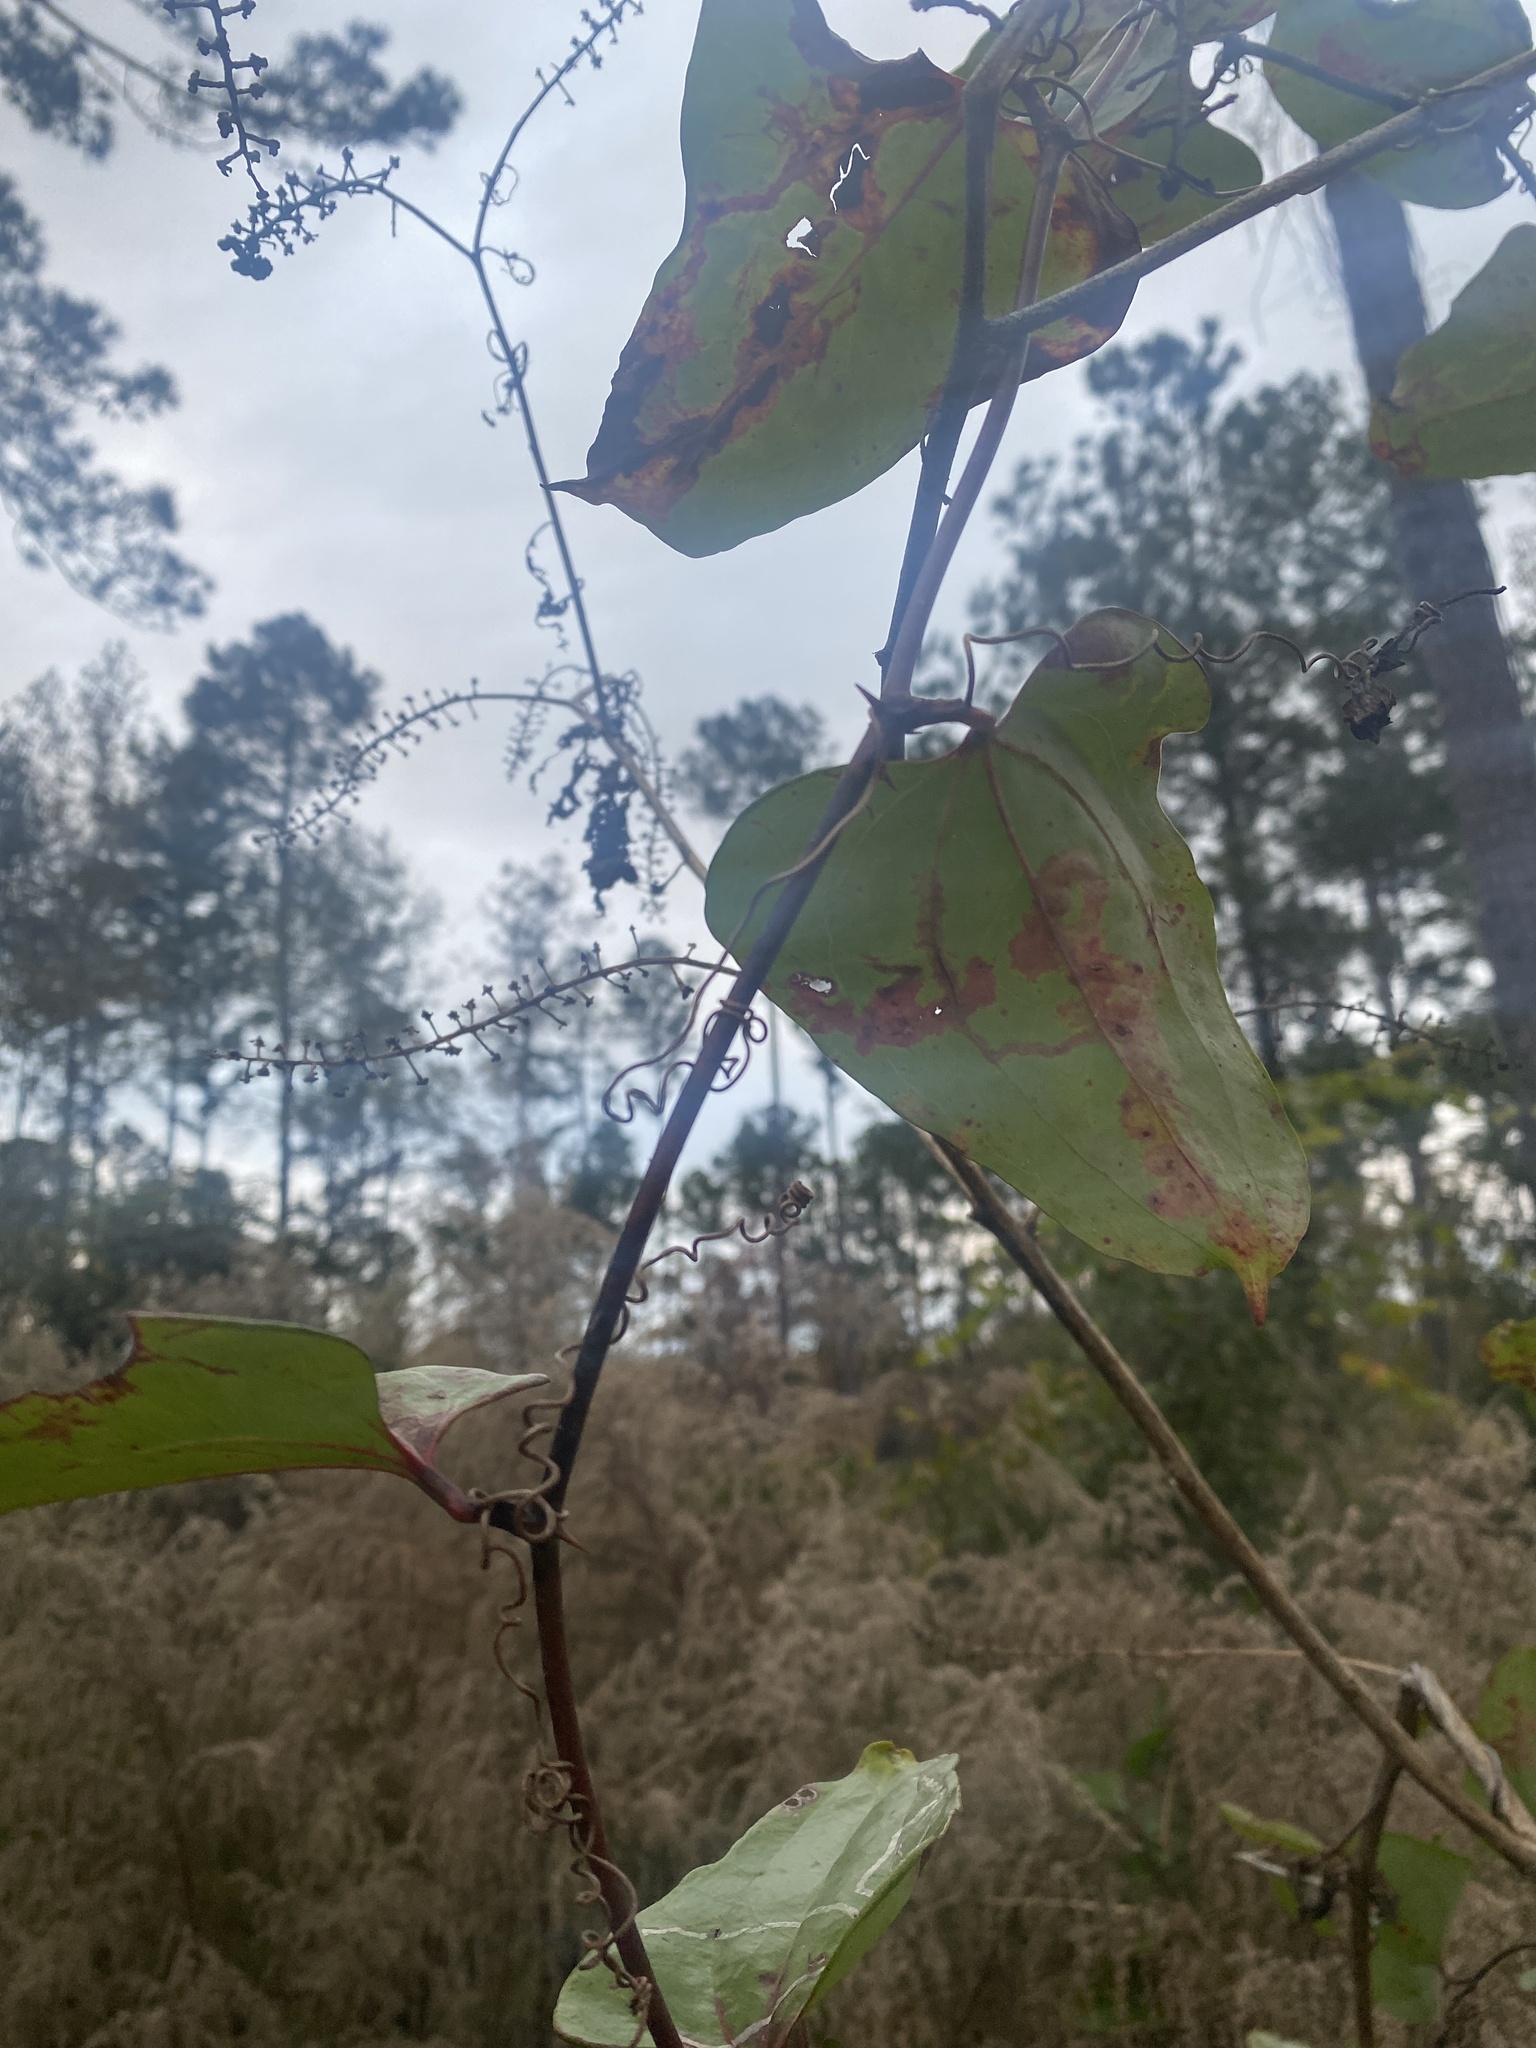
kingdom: Plantae
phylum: Tracheophyta
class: Liliopsida
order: Liliales
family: Smilacaceae
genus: Smilax
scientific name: Smilax glauca
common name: Cat greenbrier
